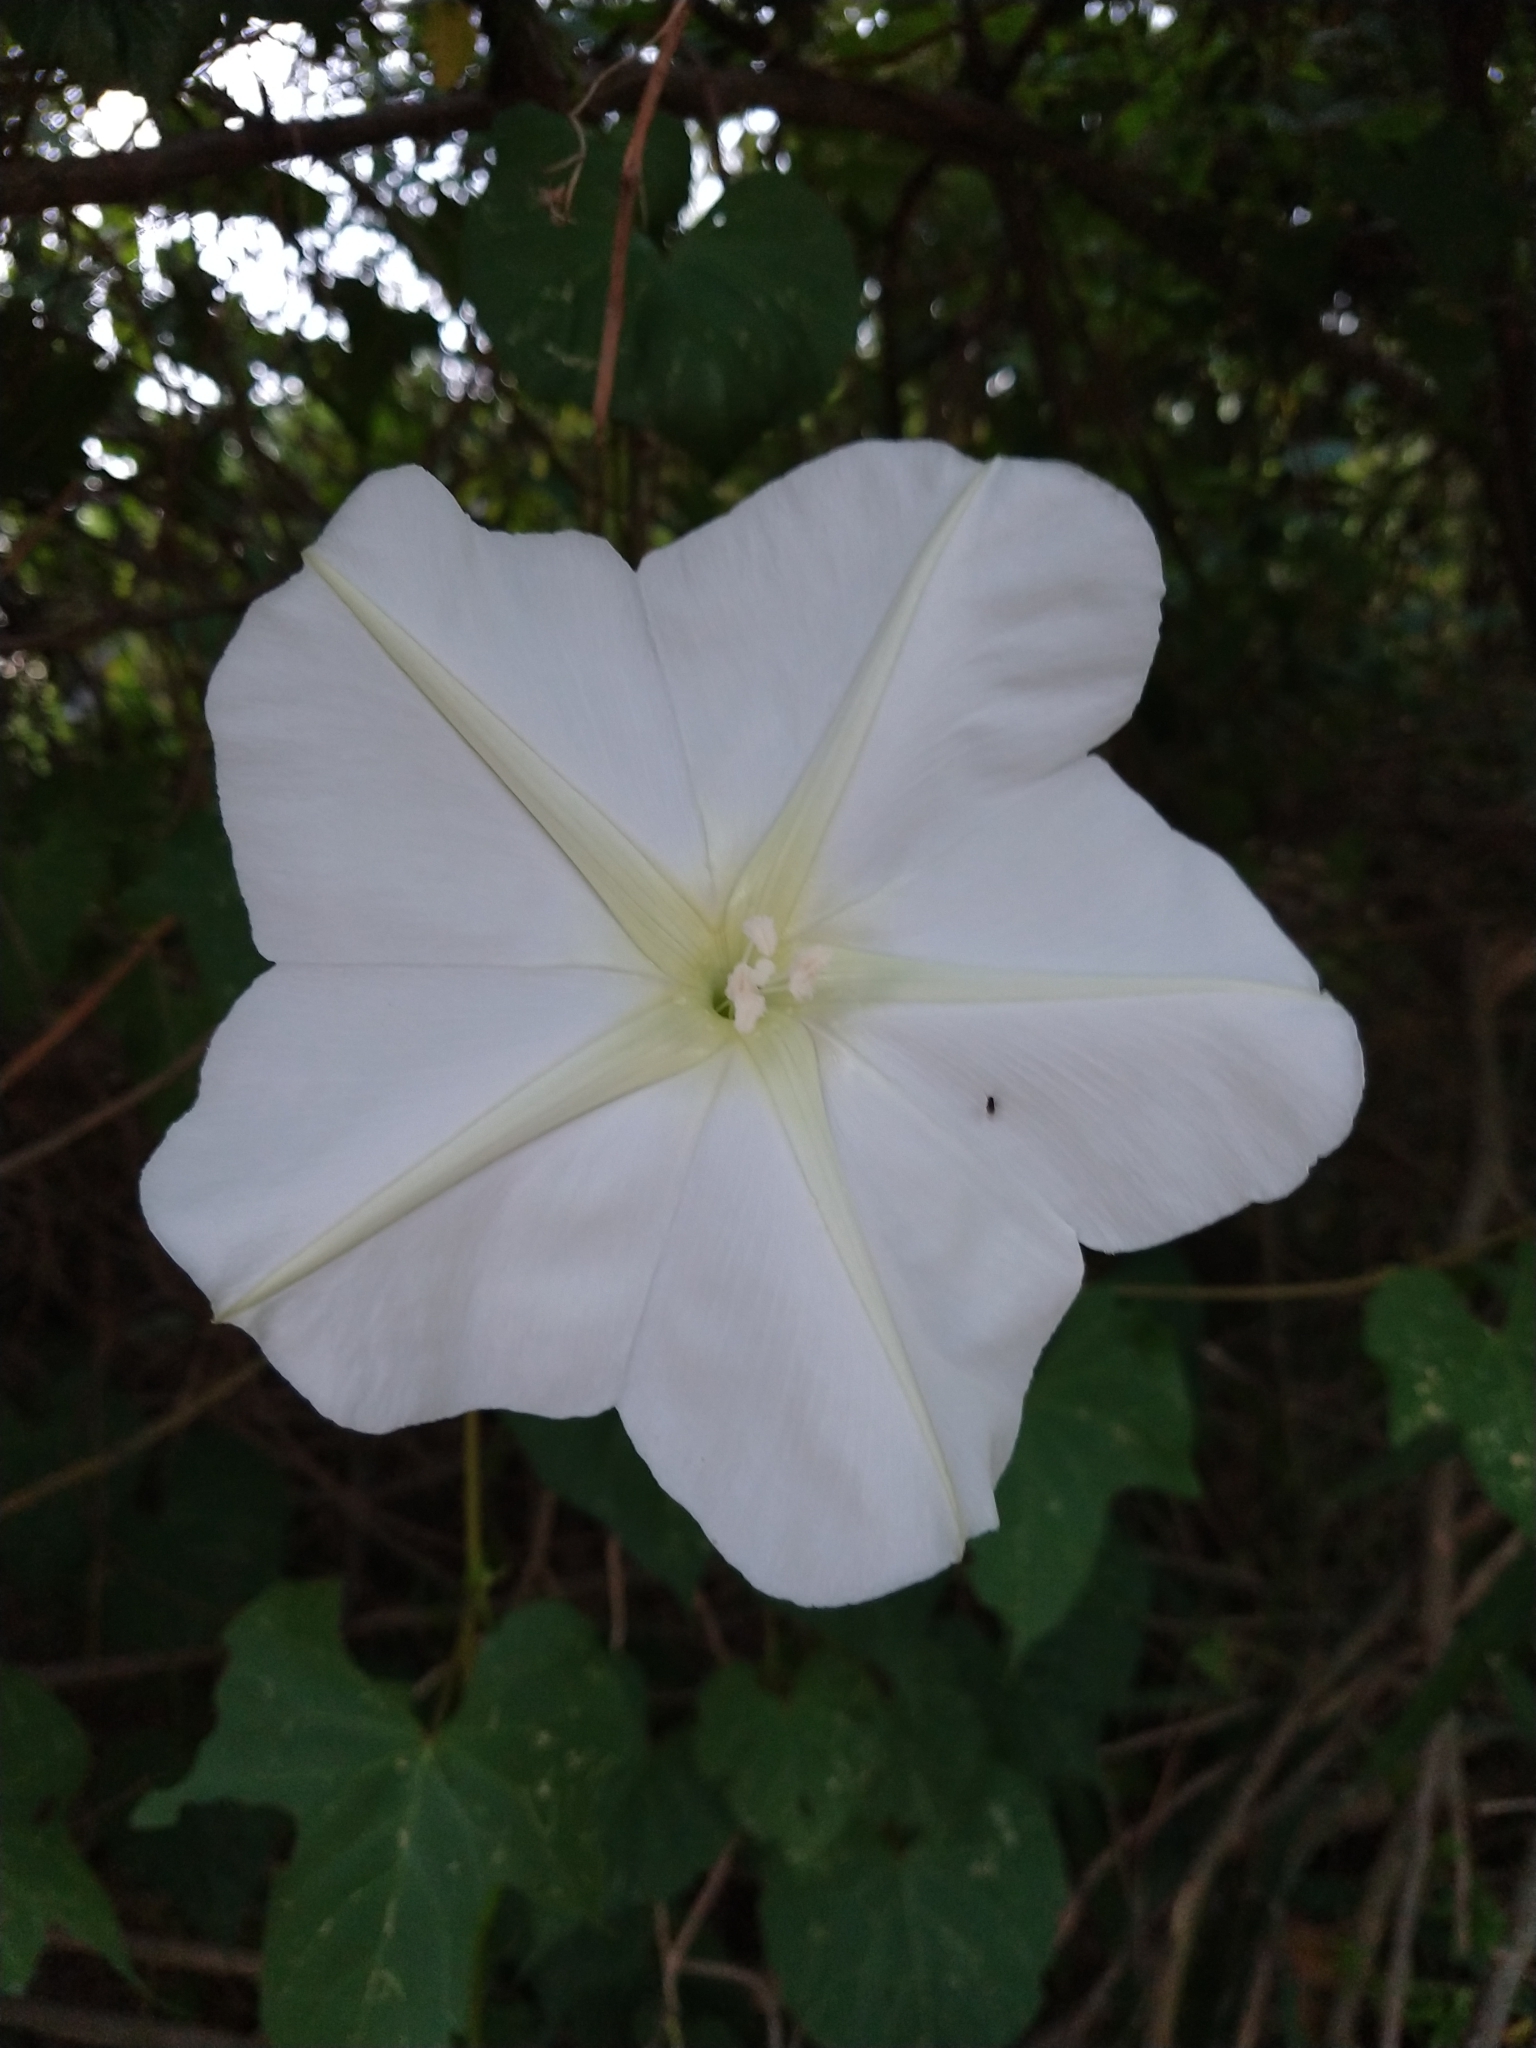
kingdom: Plantae
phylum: Tracheophyta
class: Magnoliopsida
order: Solanales
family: Convolvulaceae
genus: Ipomoea
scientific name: Ipomoea alba
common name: Moonflower
